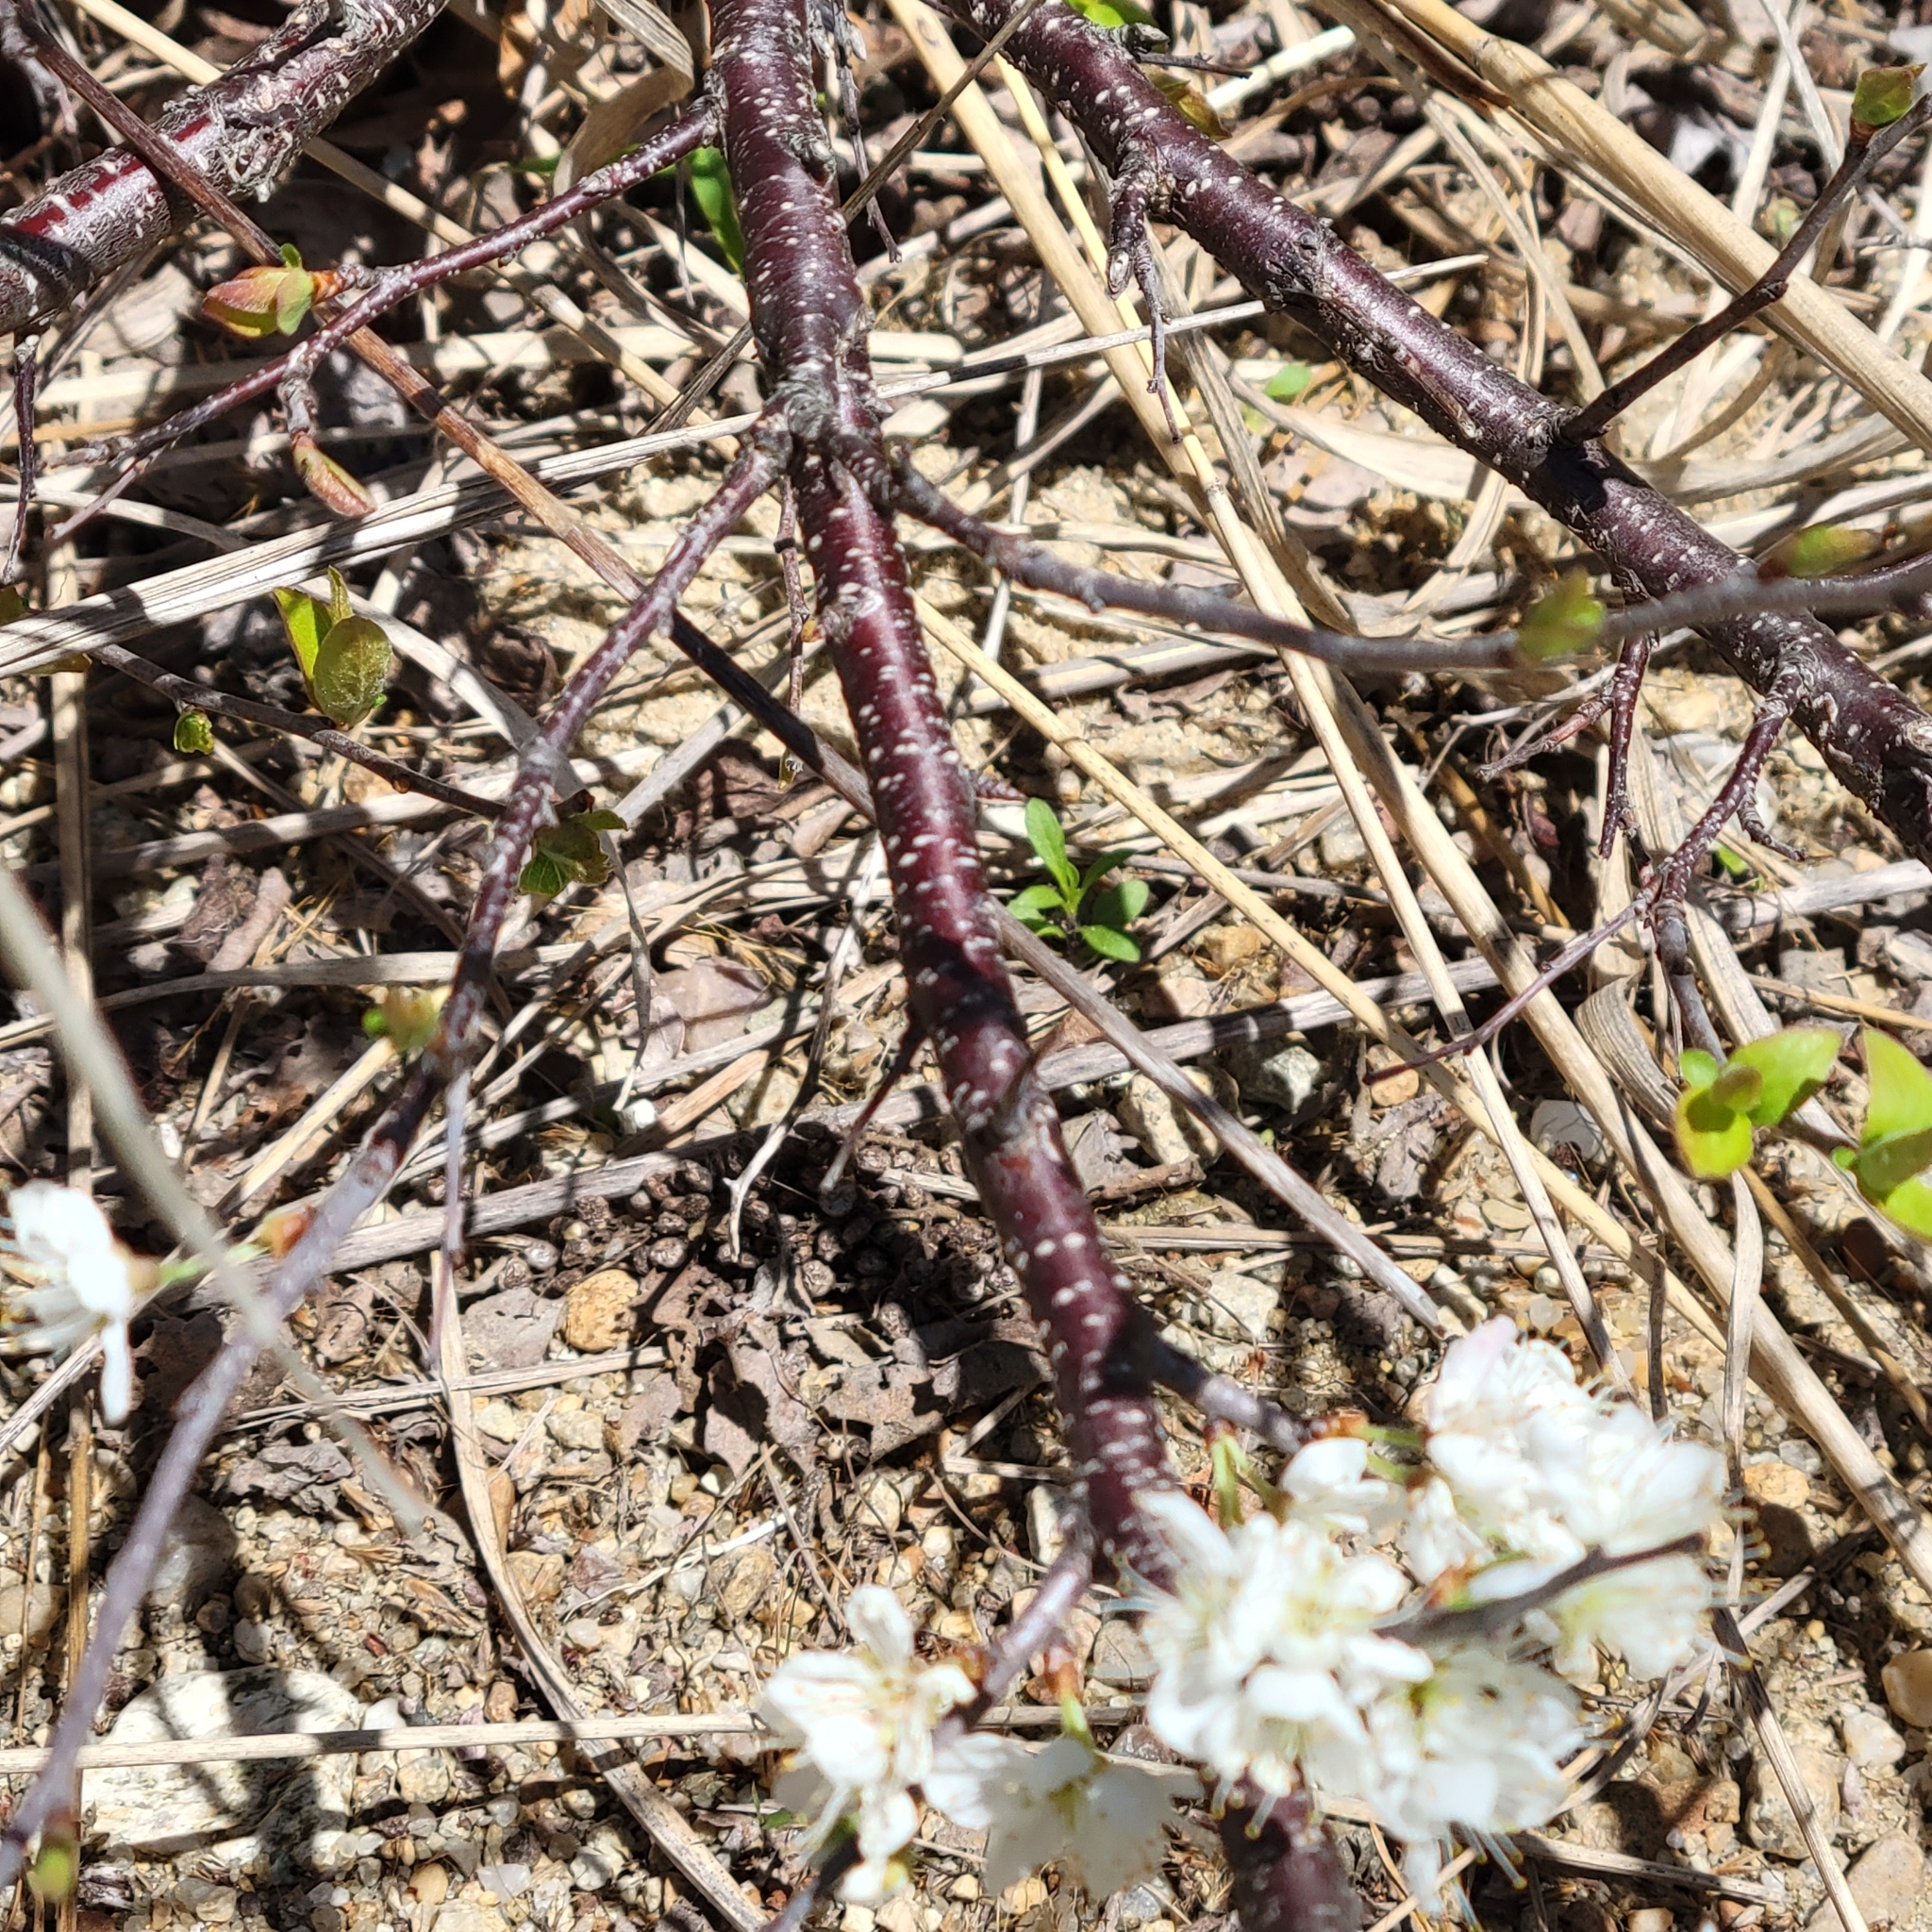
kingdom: Plantae
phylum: Tracheophyta
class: Magnoliopsida
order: Rosales
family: Rosaceae
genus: Prunus
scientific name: Prunus maritima
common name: Beach plum
